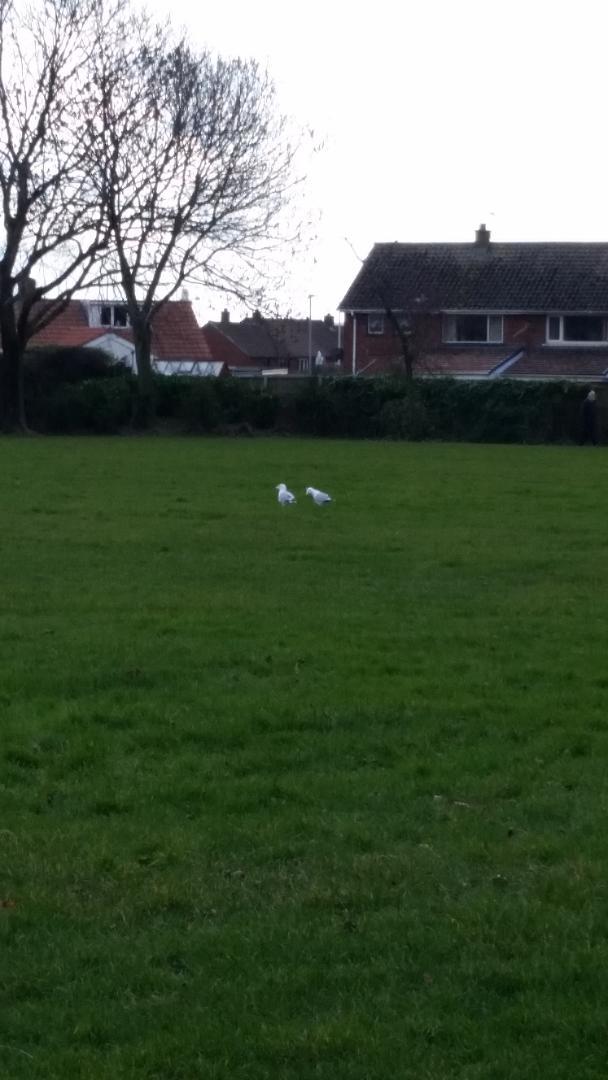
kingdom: Animalia
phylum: Chordata
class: Aves
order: Charadriiformes
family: Laridae
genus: Larus
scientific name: Larus argentatus
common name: Herring gull
